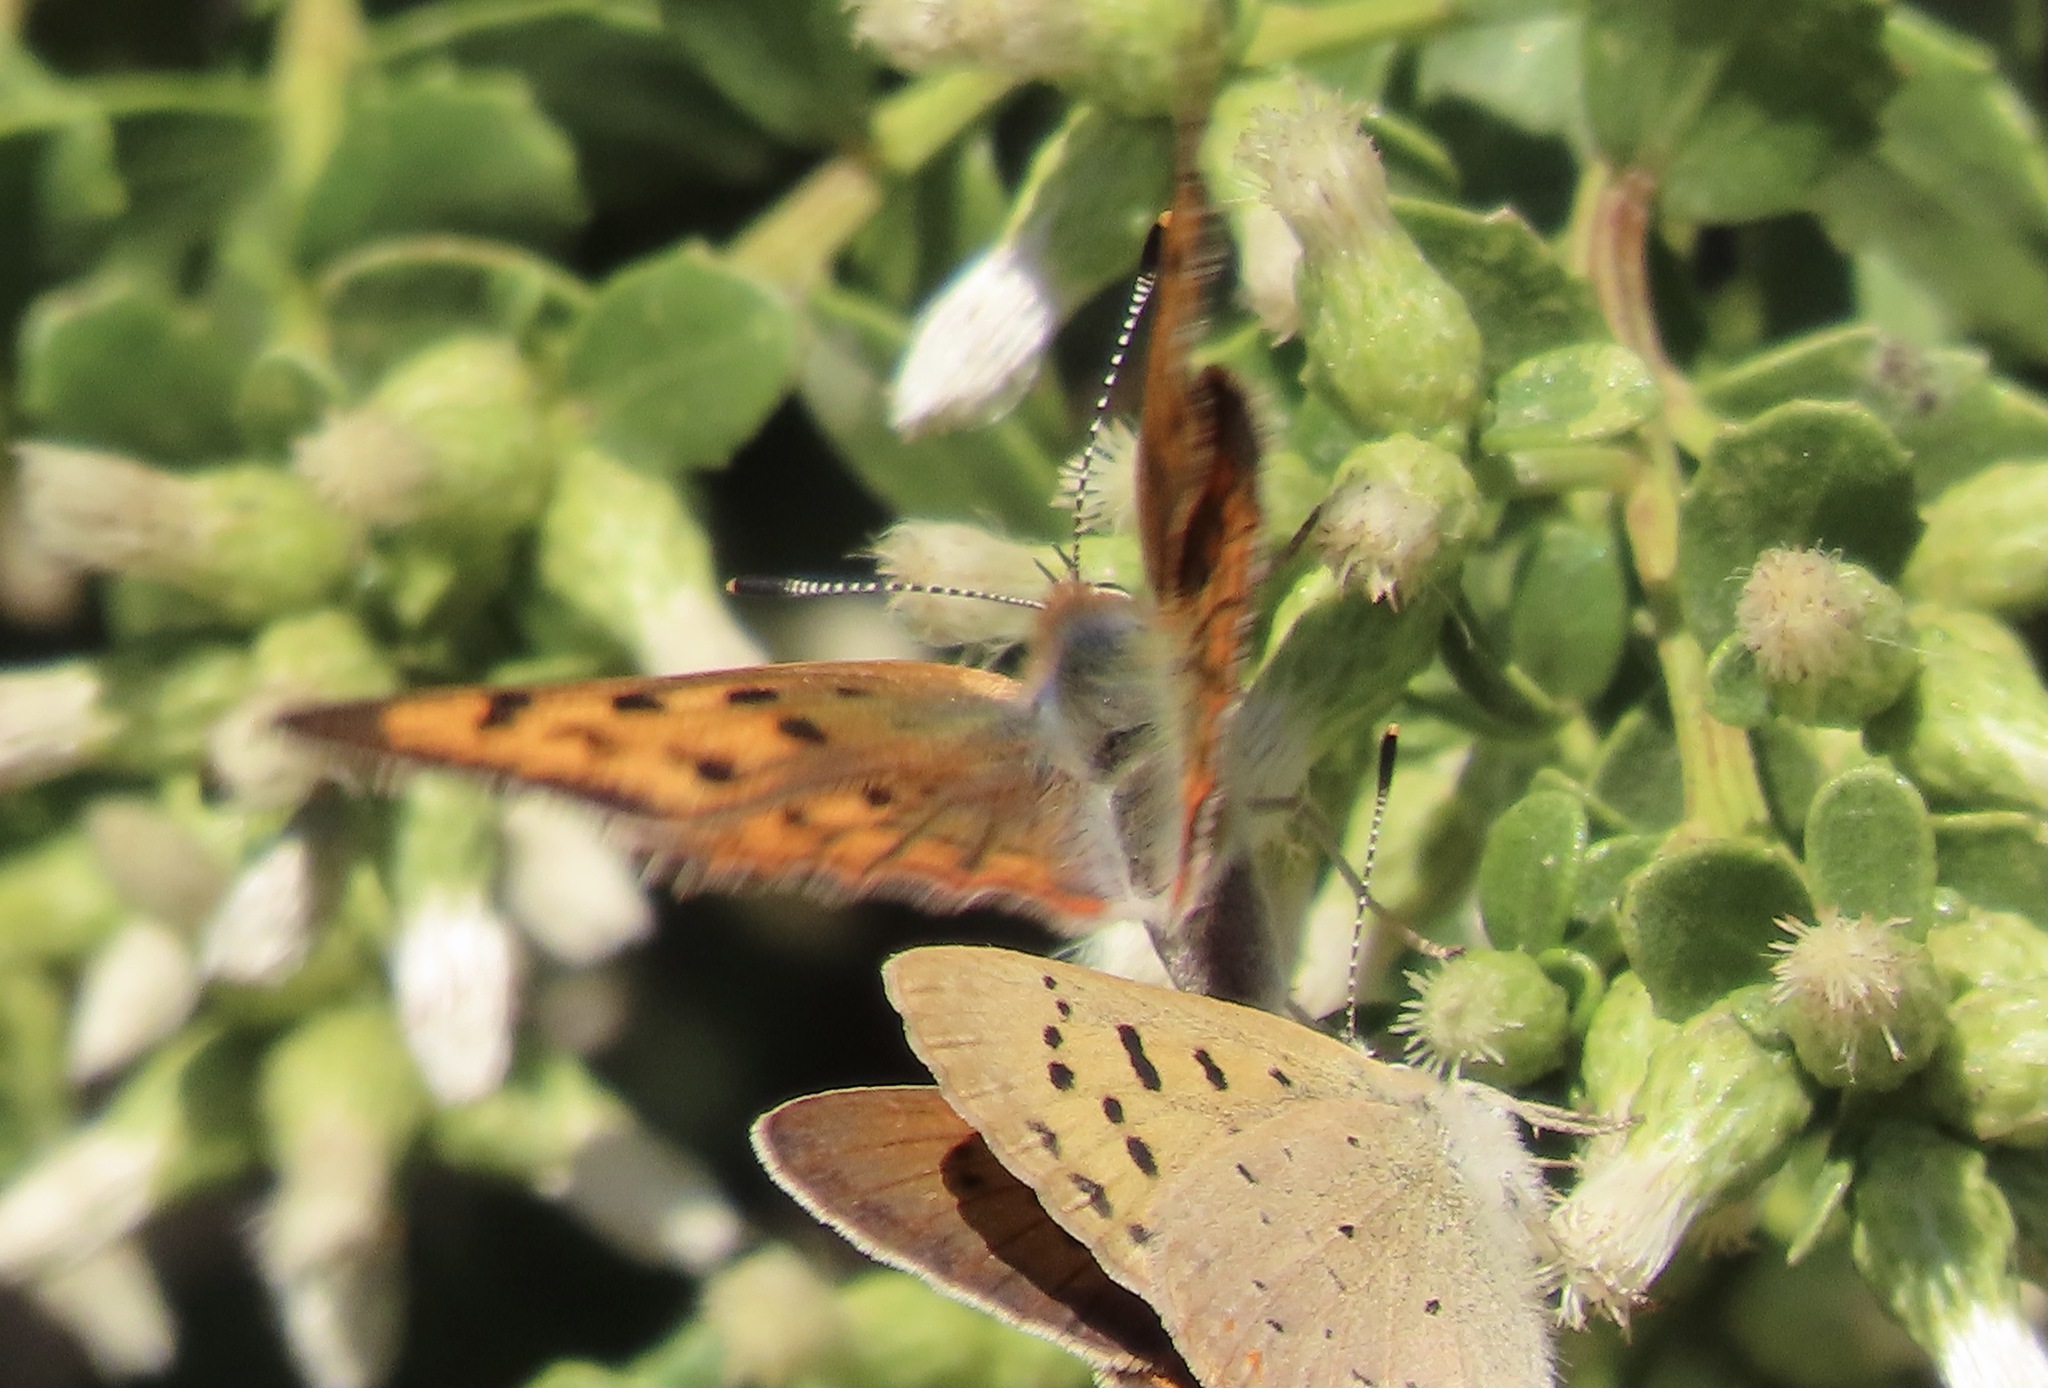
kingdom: Animalia
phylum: Arthropoda
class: Insecta
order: Lepidoptera
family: Lycaenidae
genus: Tharsalea
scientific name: Tharsalea helloides
